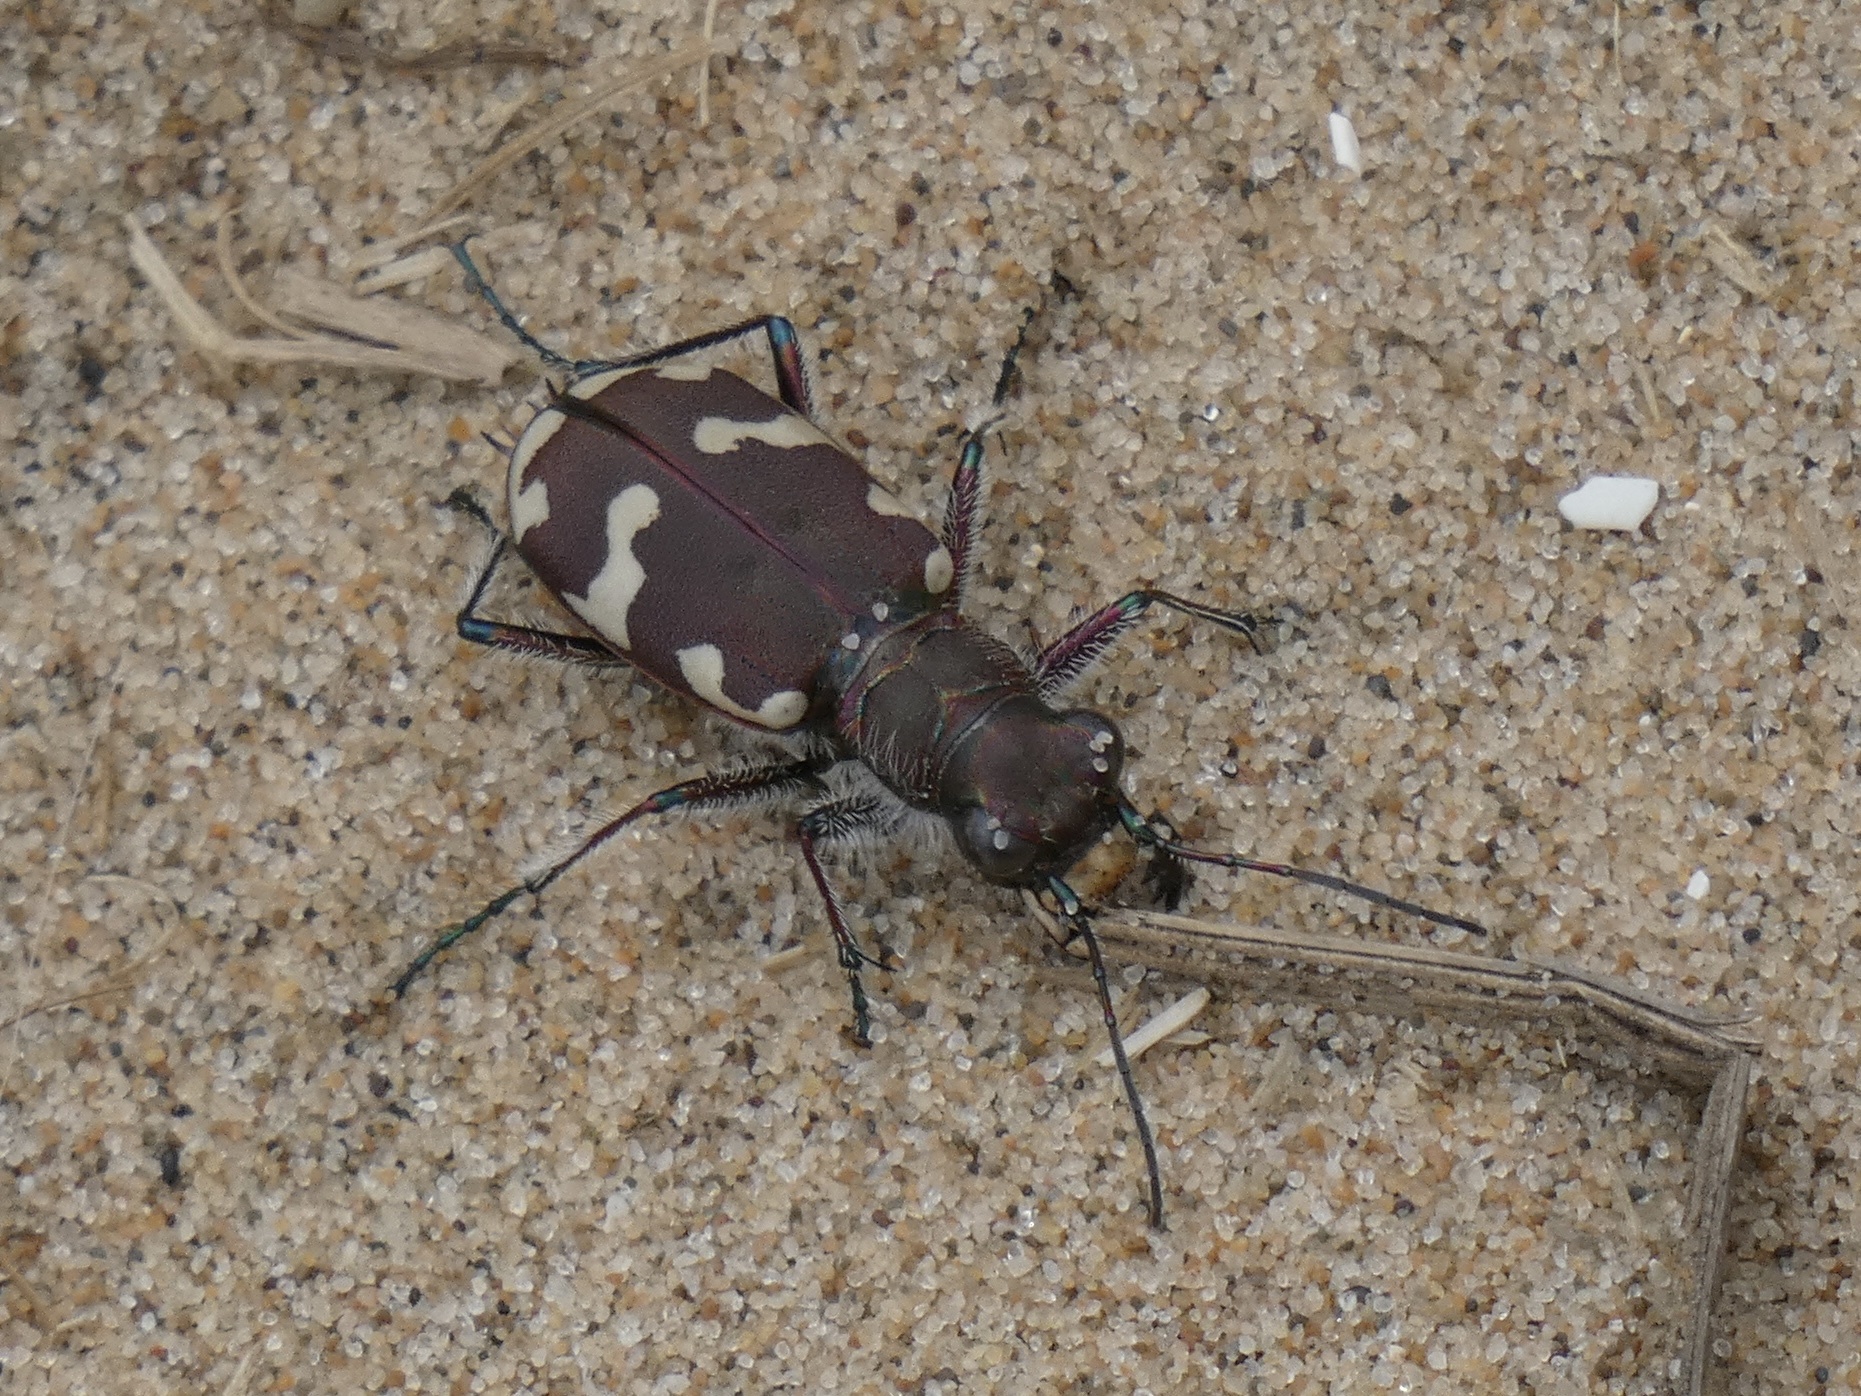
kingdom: Animalia
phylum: Arthropoda
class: Insecta
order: Coleoptera
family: Carabidae
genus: Cicindela
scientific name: Cicindela hybrida
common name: Northern dune tiger beetle
